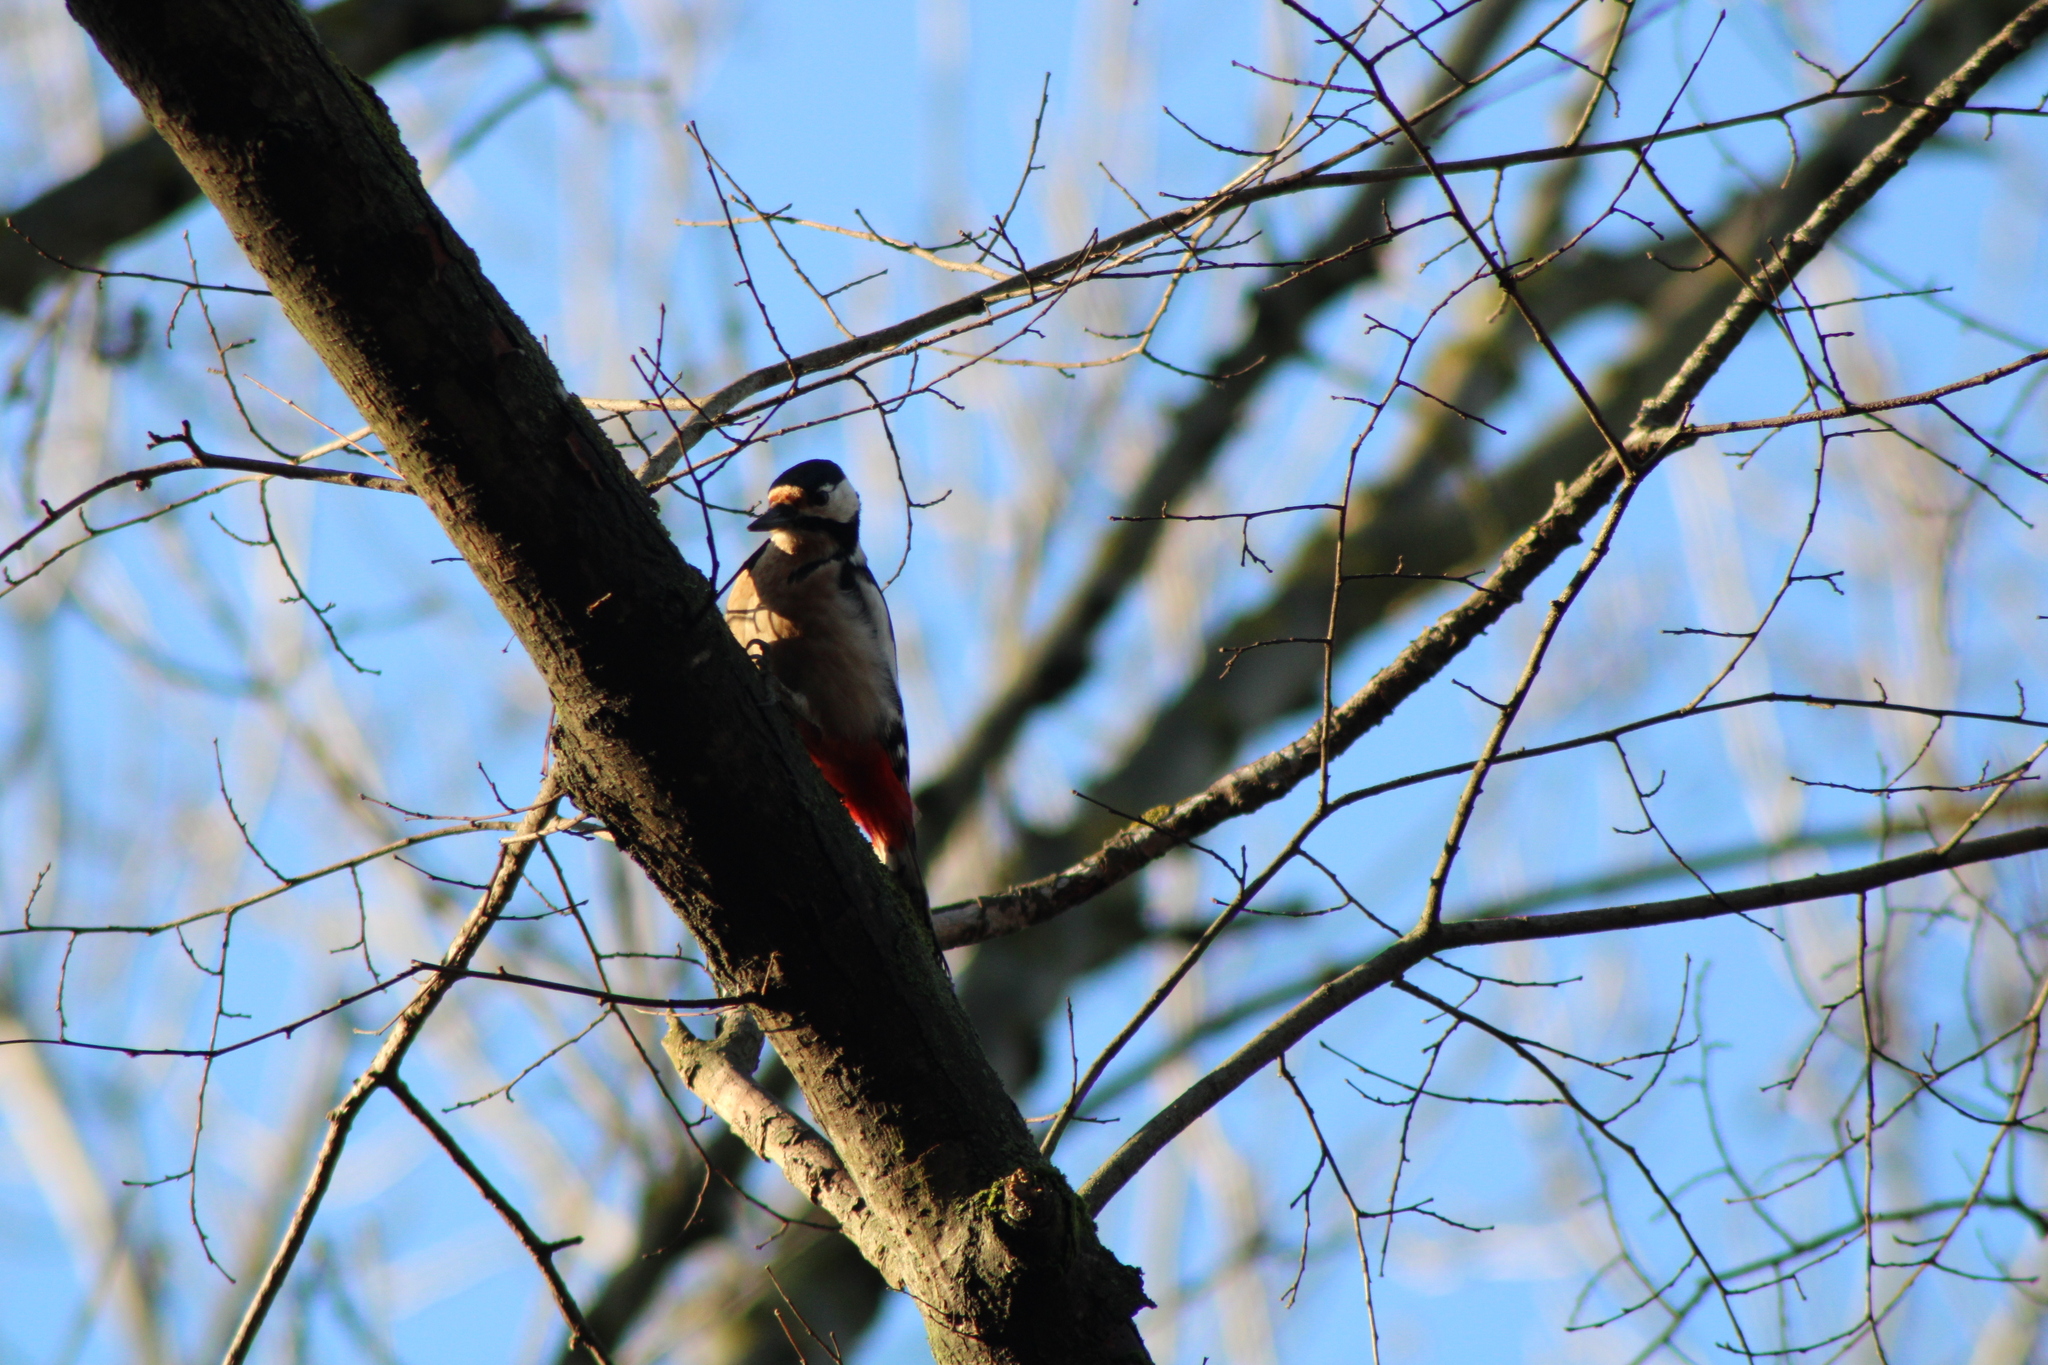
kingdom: Animalia
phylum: Chordata
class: Aves
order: Piciformes
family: Picidae
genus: Dendrocopos
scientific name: Dendrocopos major
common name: Great spotted woodpecker
